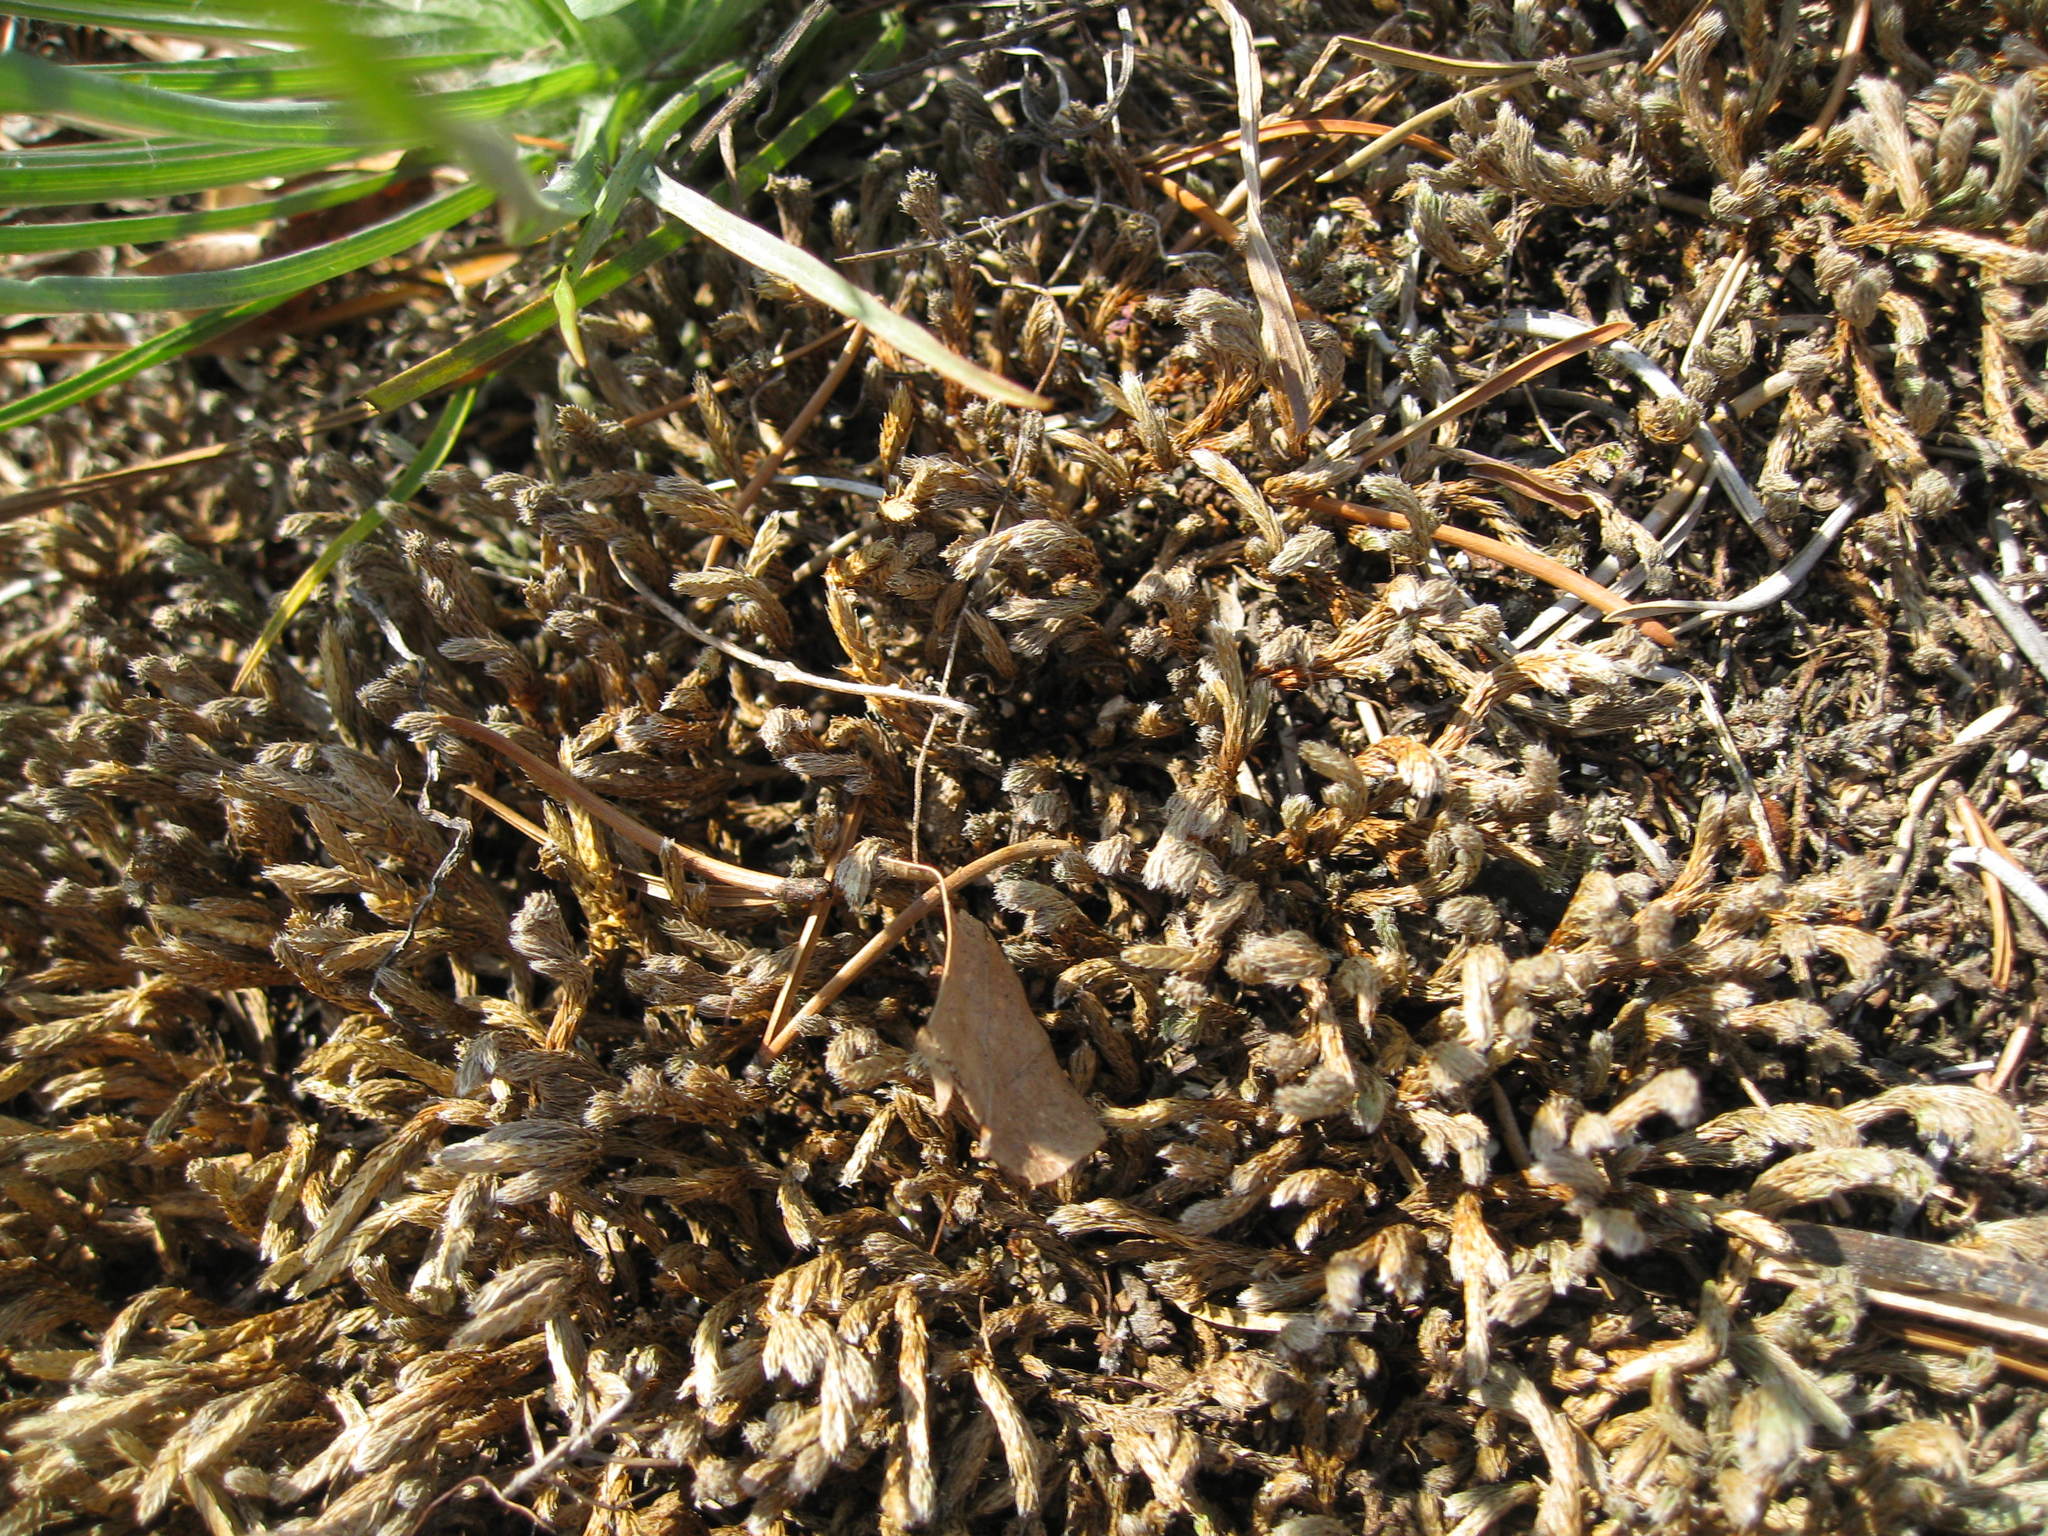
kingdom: Plantae
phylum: Tracheophyta
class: Lycopodiopsida
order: Selaginellales
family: Selaginellaceae
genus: Selaginella
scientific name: Selaginella rupestris
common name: Dwarf spikemoss
